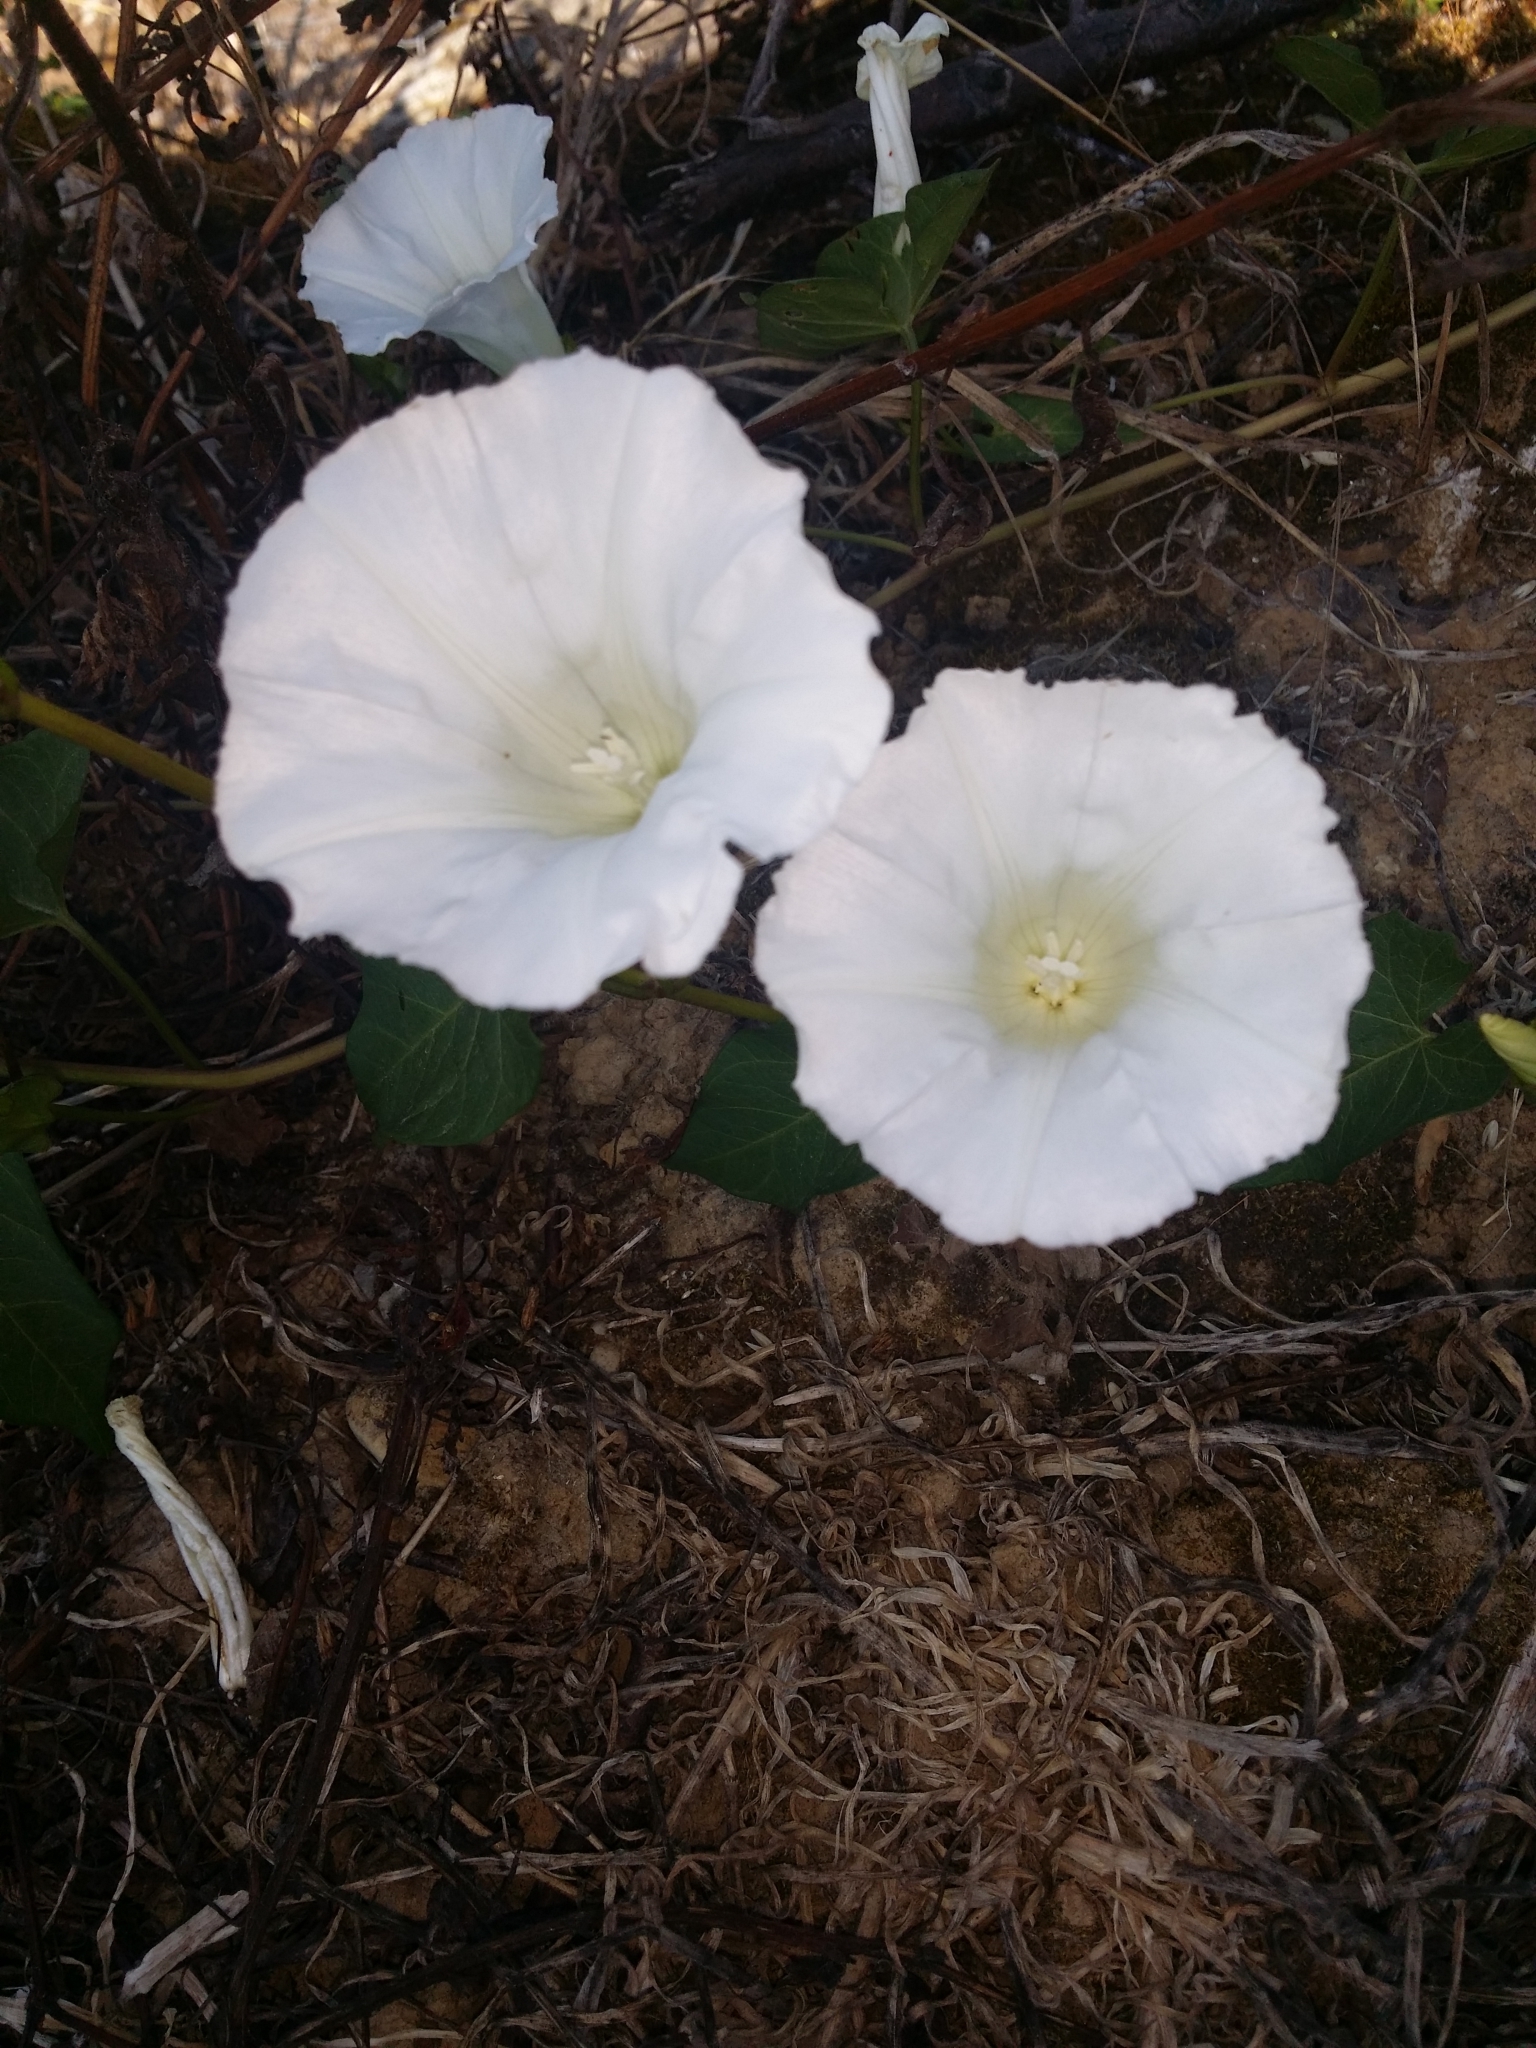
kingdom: Plantae
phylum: Tracheophyta
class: Magnoliopsida
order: Solanales
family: Convolvulaceae
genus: Calystegia
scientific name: Calystegia
